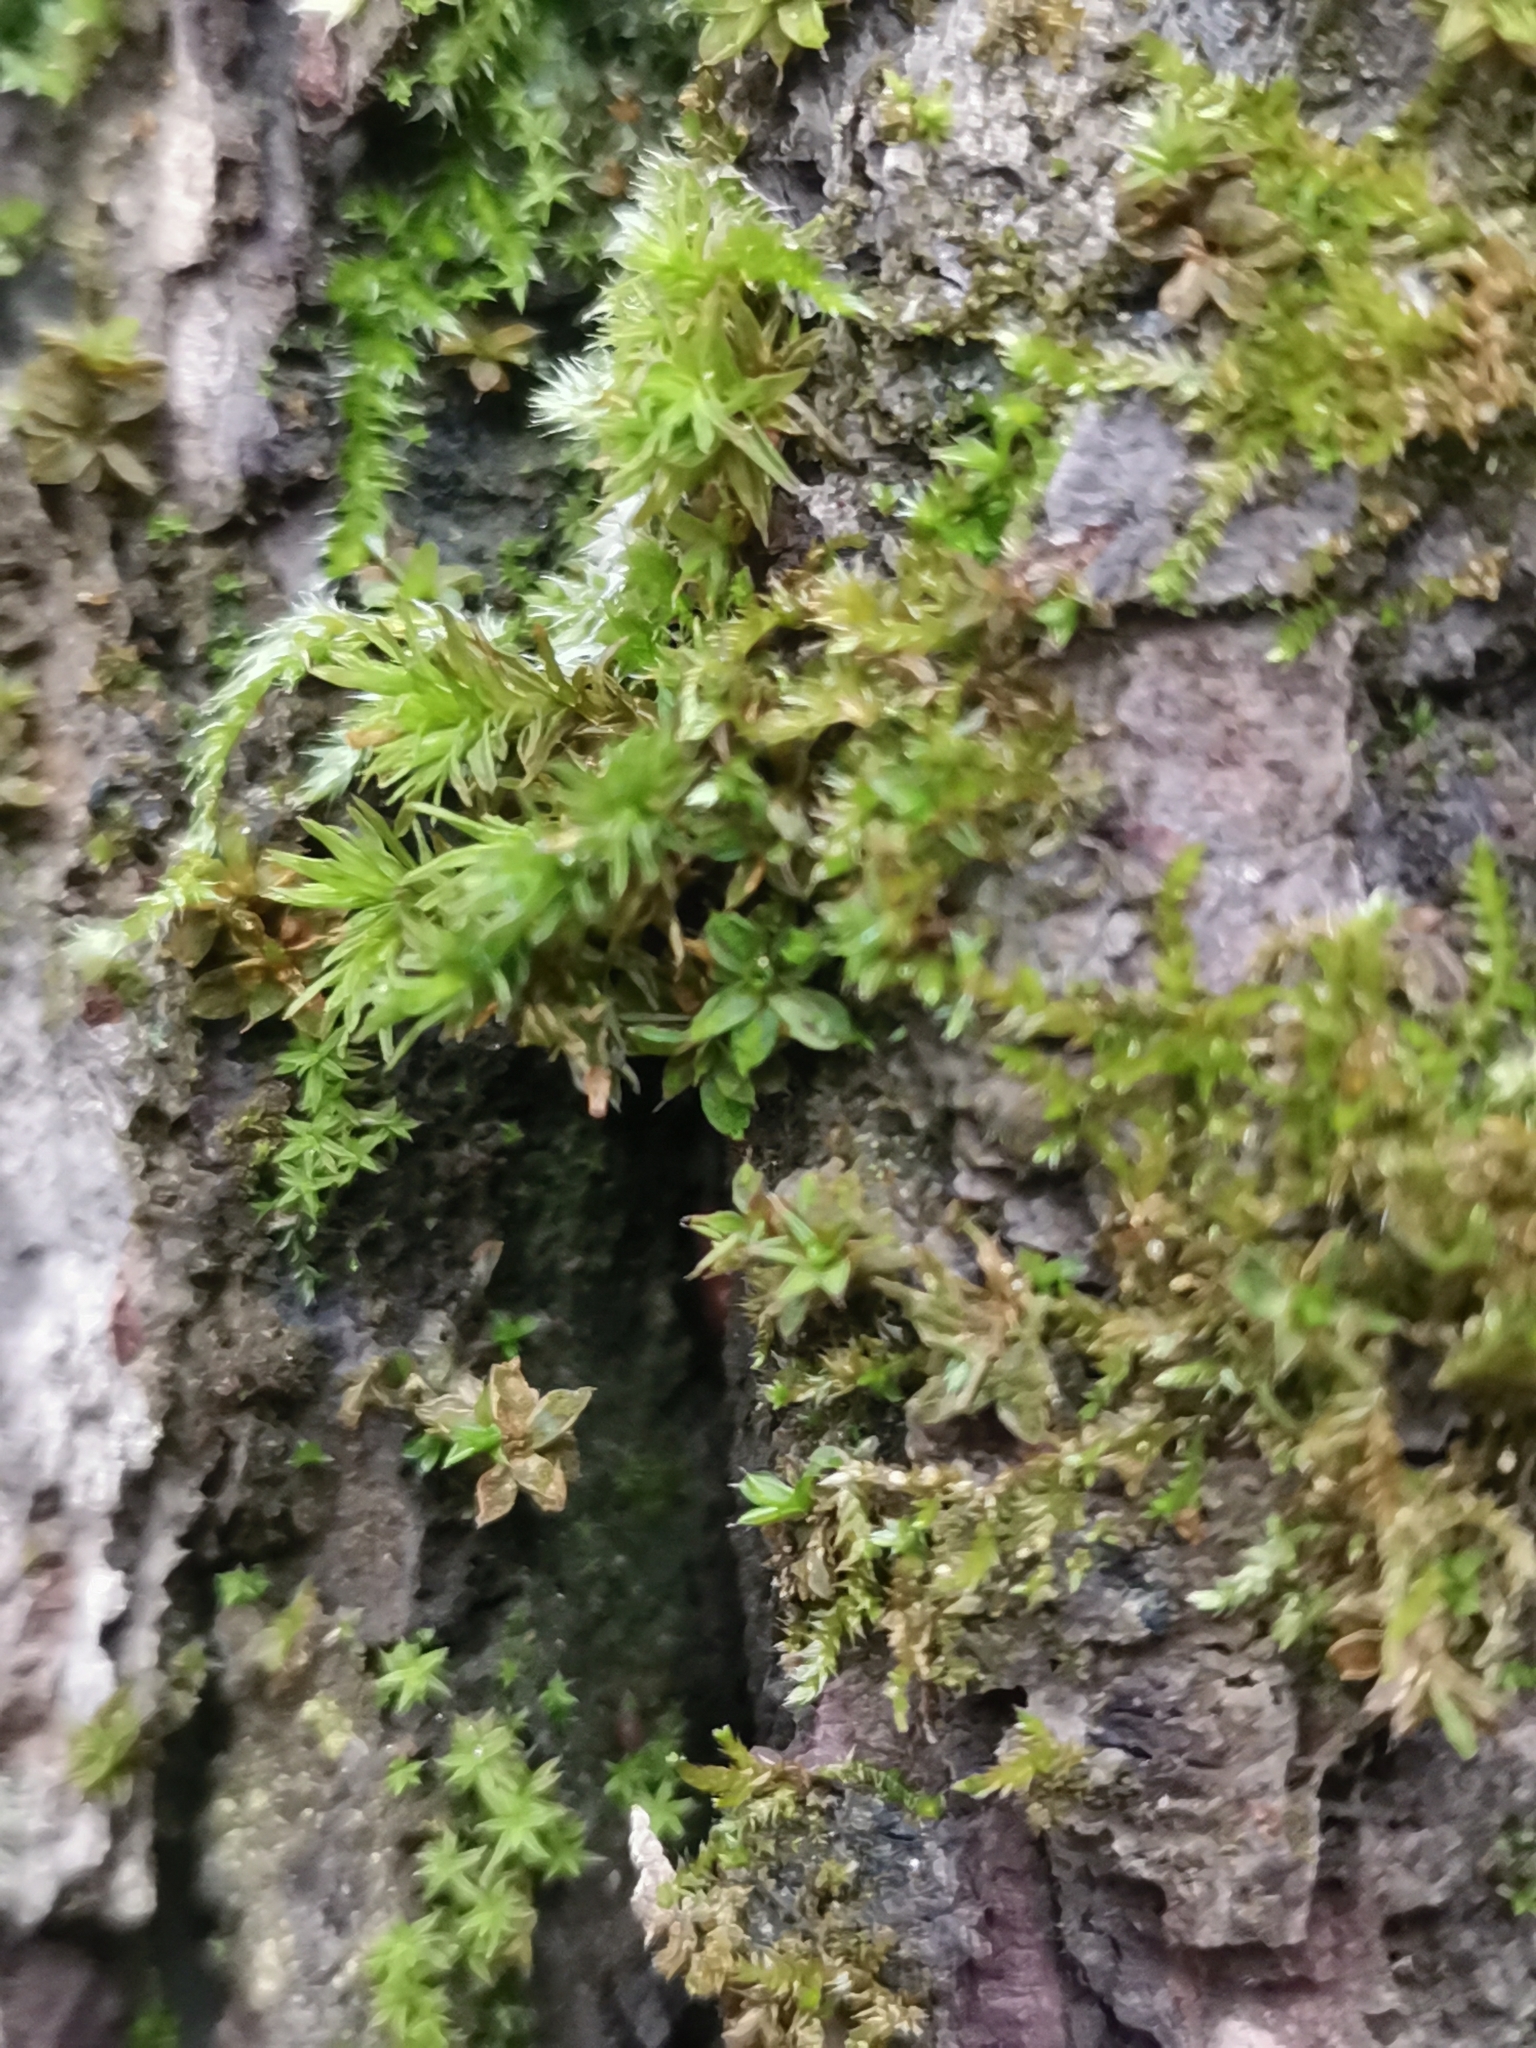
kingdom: Plantae
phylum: Bryophyta
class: Bryopsida
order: Pottiales
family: Pottiaceae
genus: Syntrichia
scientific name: Syntrichia papillosa
